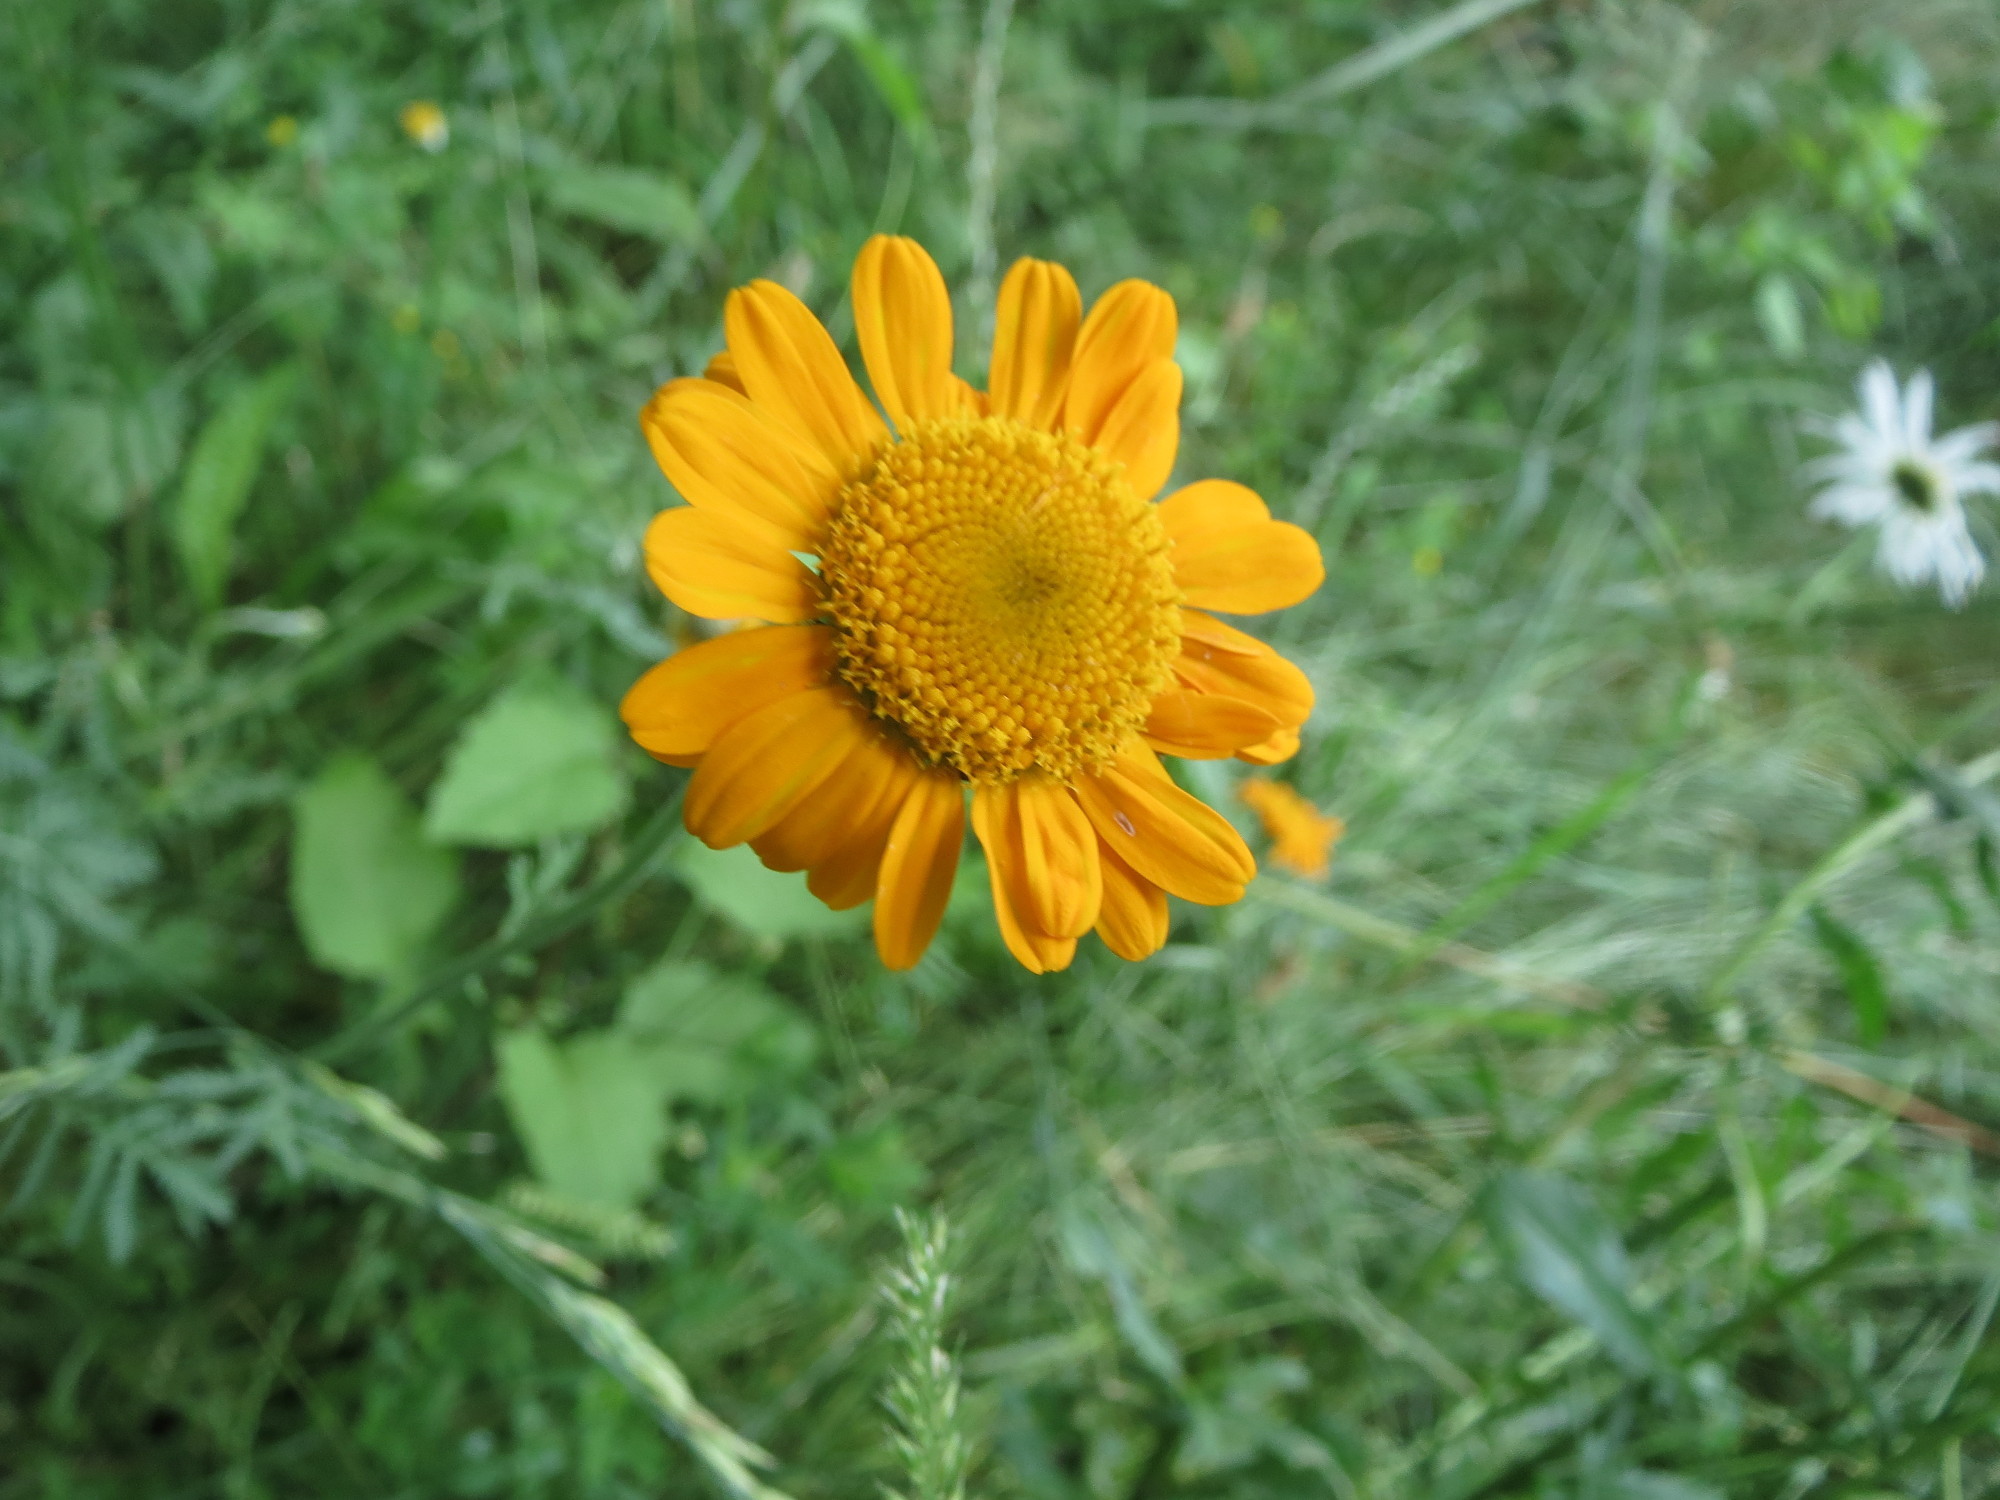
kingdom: Plantae
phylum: Tracheophyta
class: Magnoliopsida
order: Asterales
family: Asteraceae
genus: Cota
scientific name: Cota tinctoria
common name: Golden chamomile
